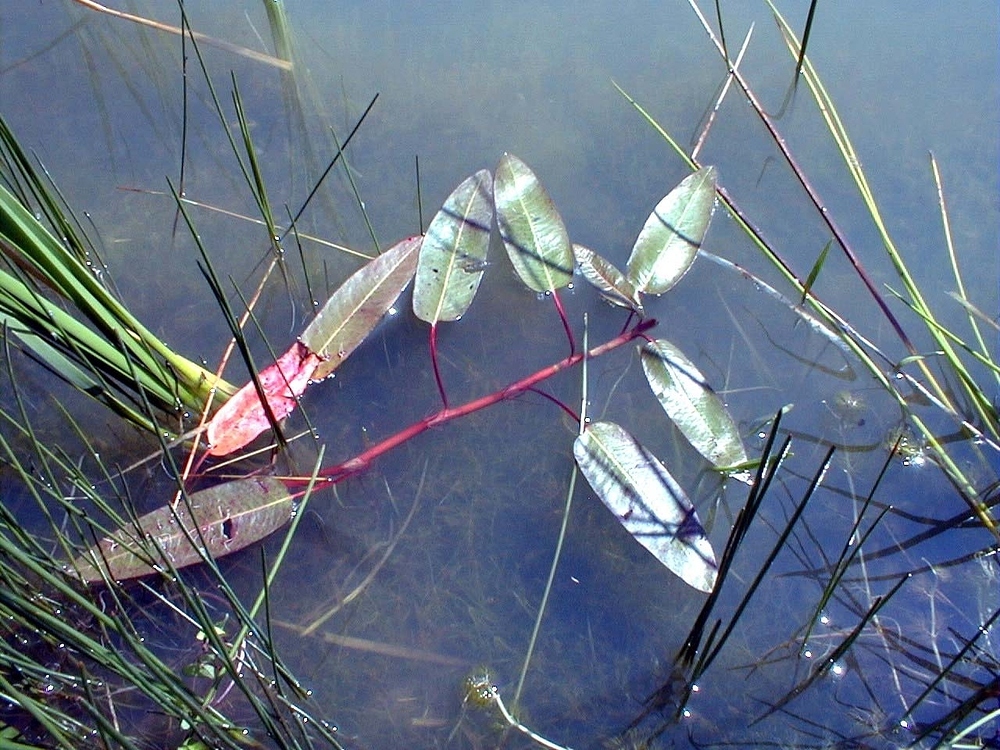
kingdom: Plantae
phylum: Tracheophyta
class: Magnoliopsida
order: Caryophyllales
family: Polygonaceae
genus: Persicaria
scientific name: Persicaria amphibia
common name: Amphibious bistort
